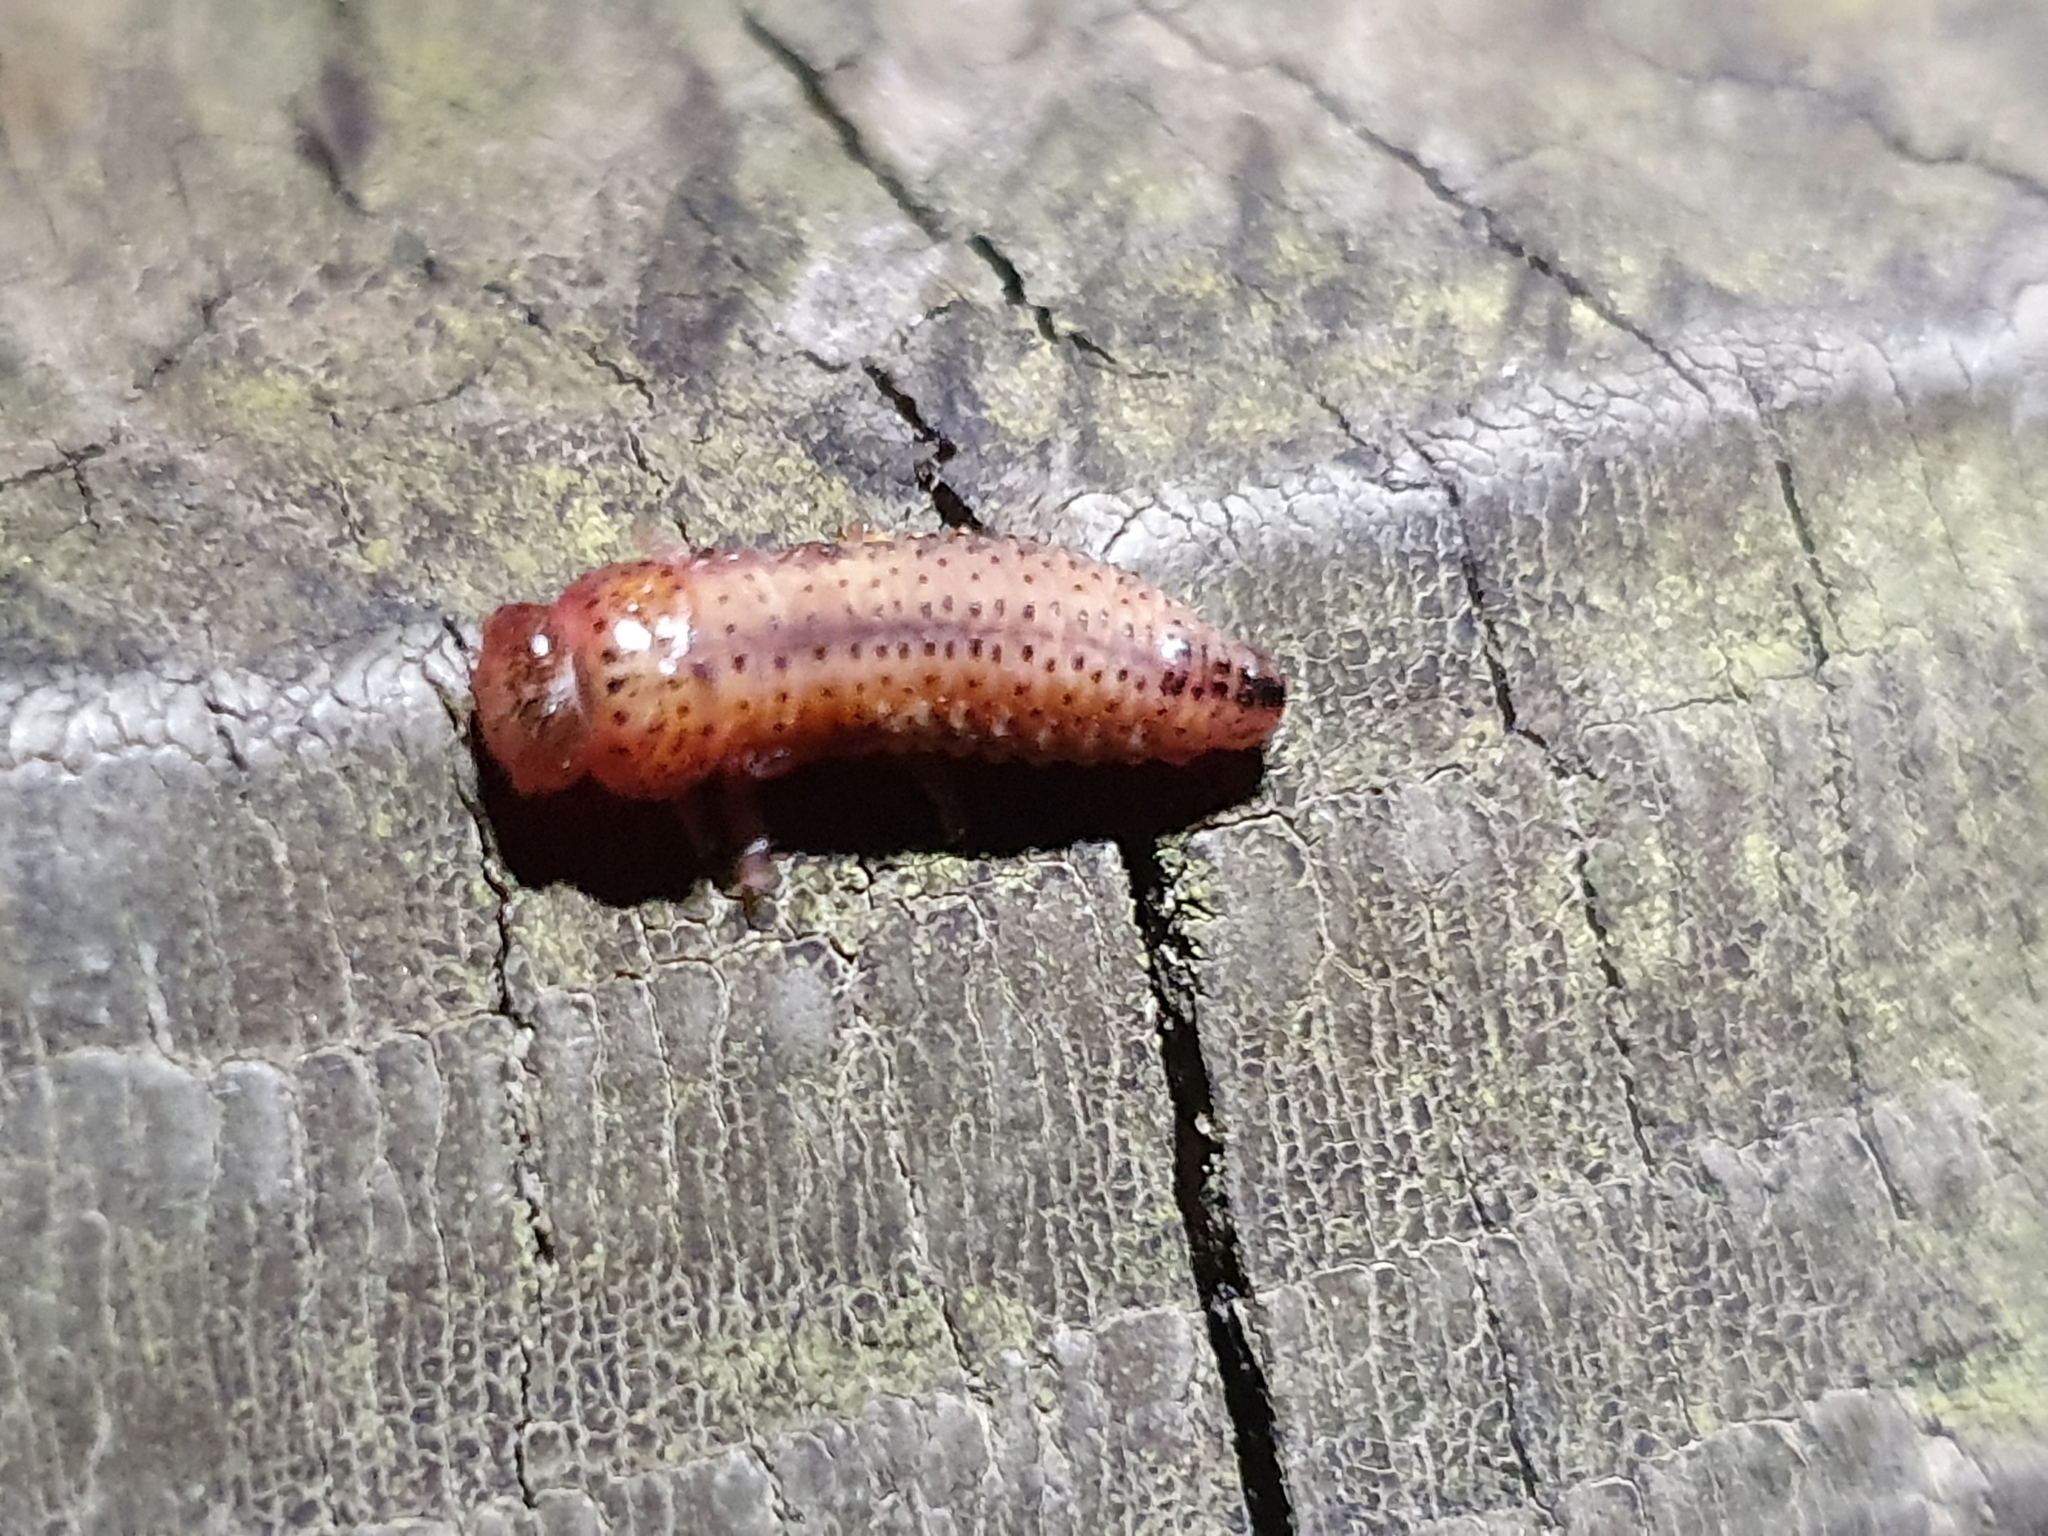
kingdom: Animalia
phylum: Arthropoda
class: Insecta
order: Coleoptera
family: Chrysomelidae
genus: Paropsis
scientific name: Paropsis charybdis
